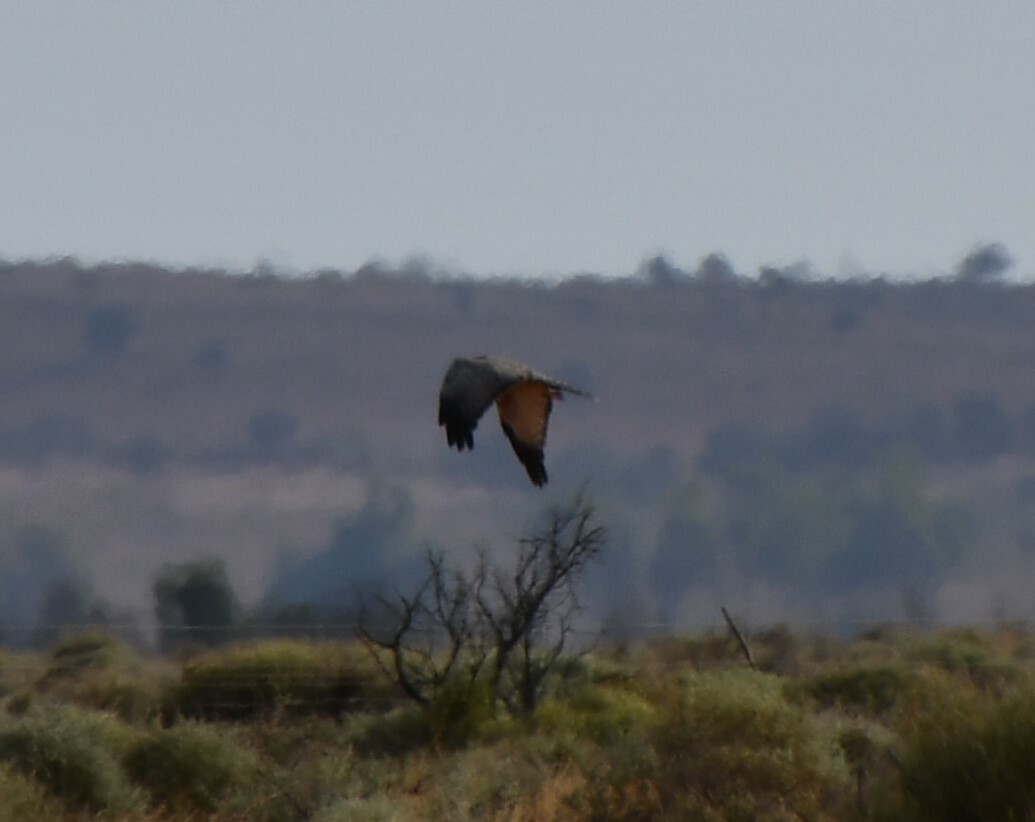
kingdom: Animalia
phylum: Chordata
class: Aves
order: Accipitriformes
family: Accipitridae
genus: Circus
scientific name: Circus assimilis
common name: Spotted harrier
